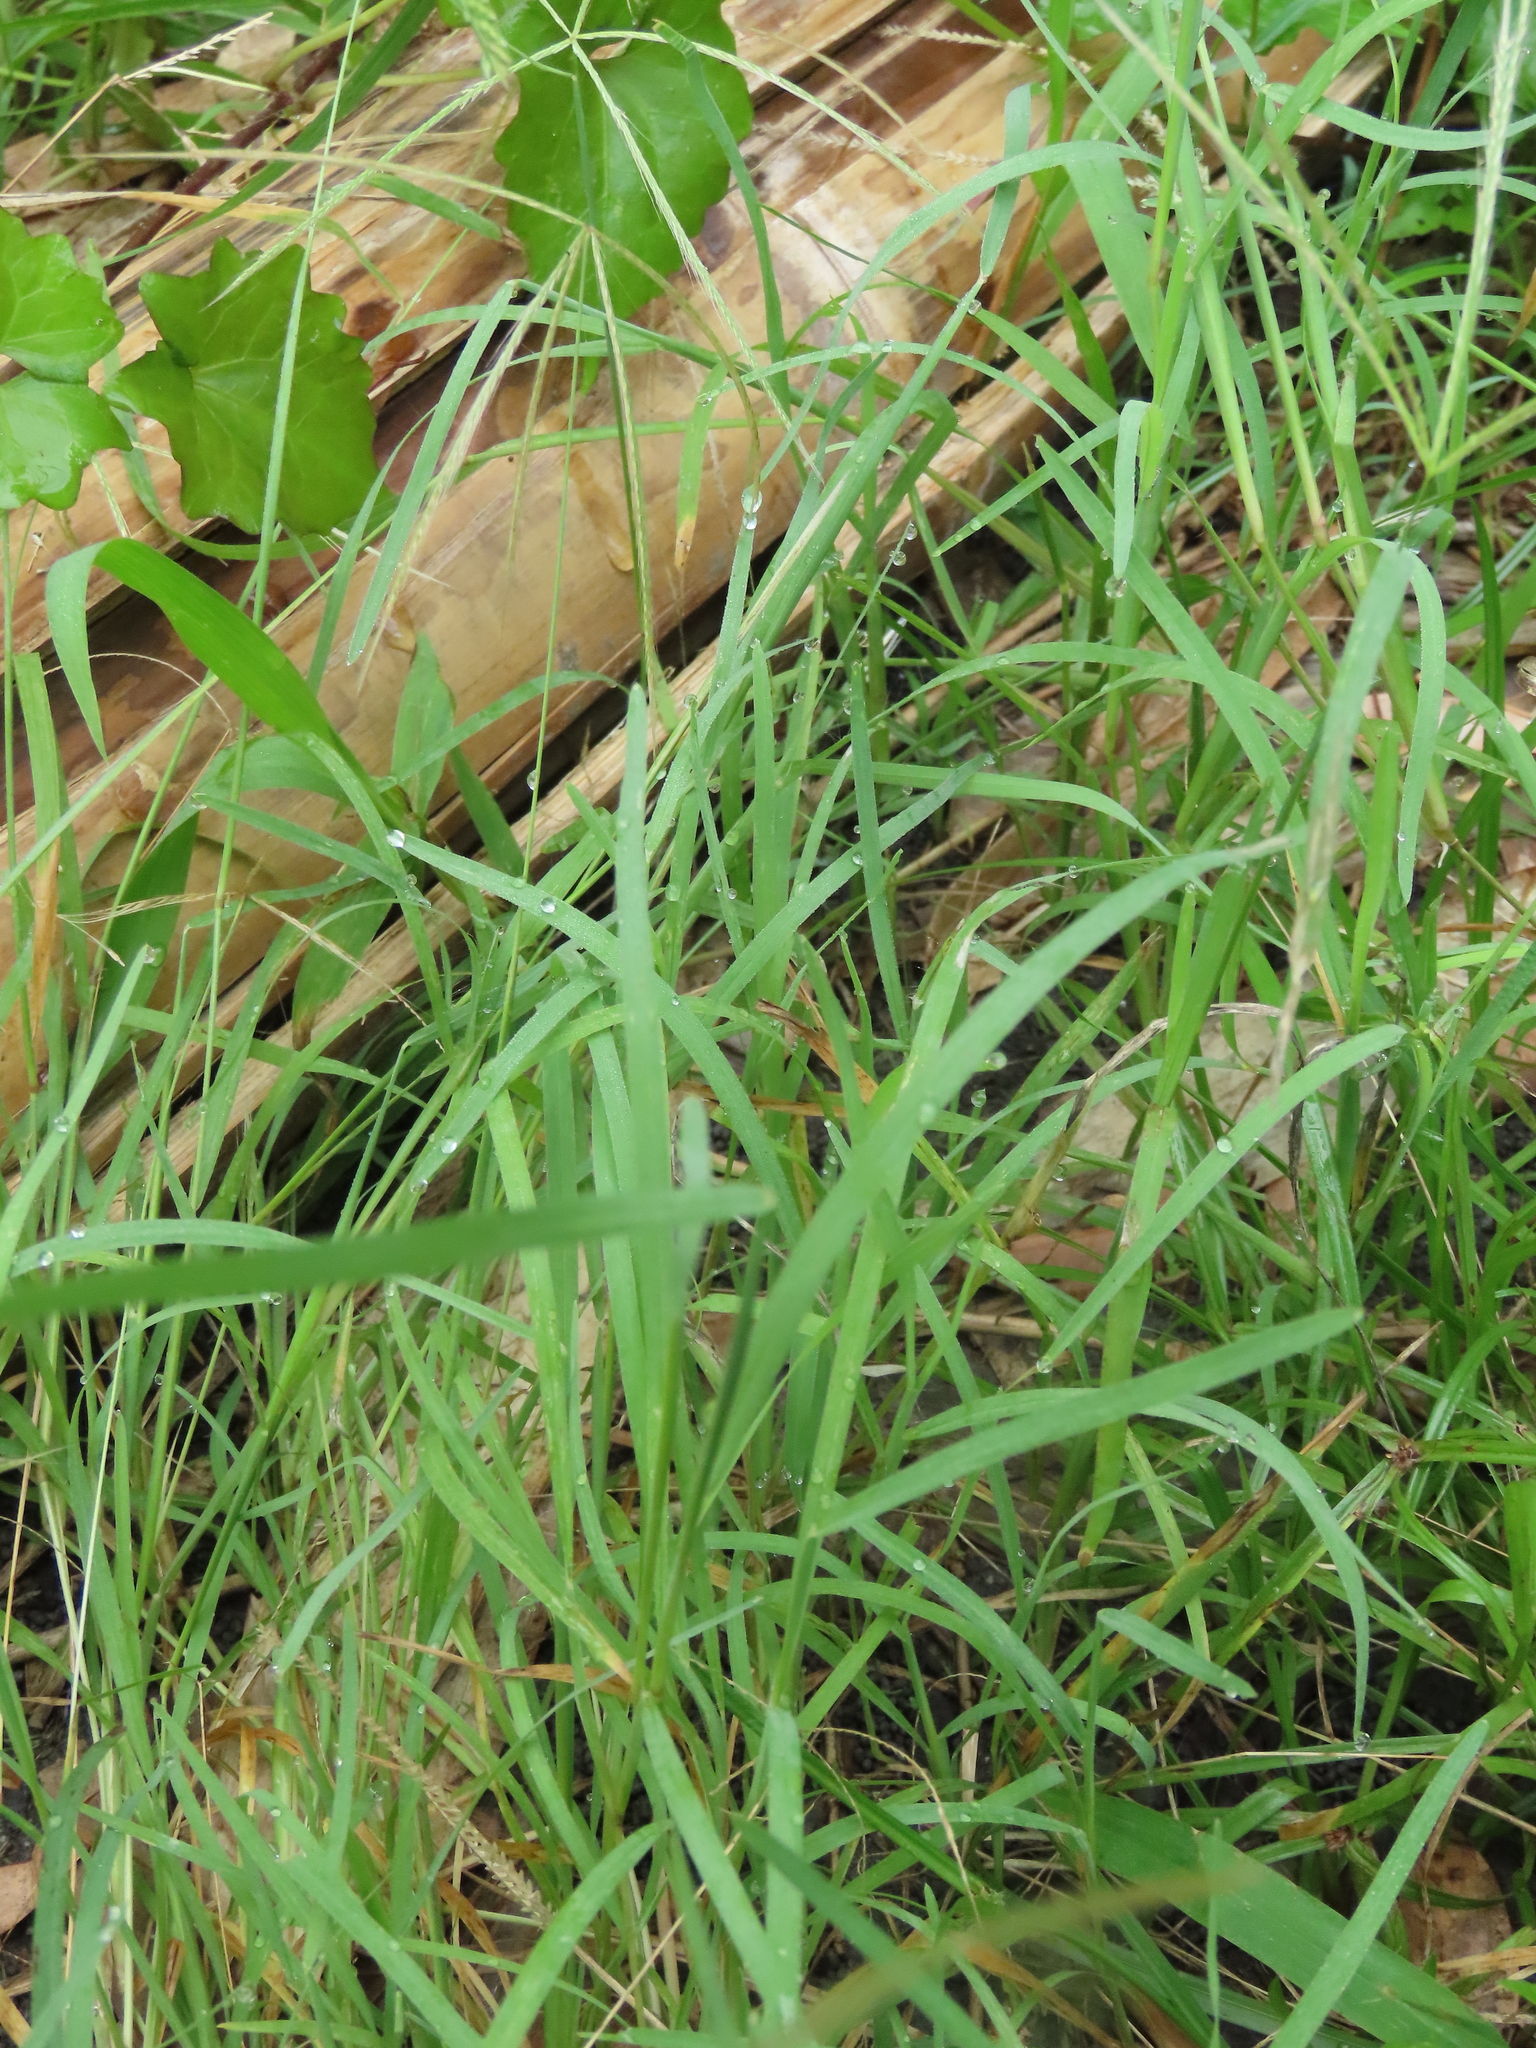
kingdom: Plantae
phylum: Tracheophyta
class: Liliopsida
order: Poales
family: Poaceae
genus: Chloris
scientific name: Chloris divaricata
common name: Spreading windmill grass
